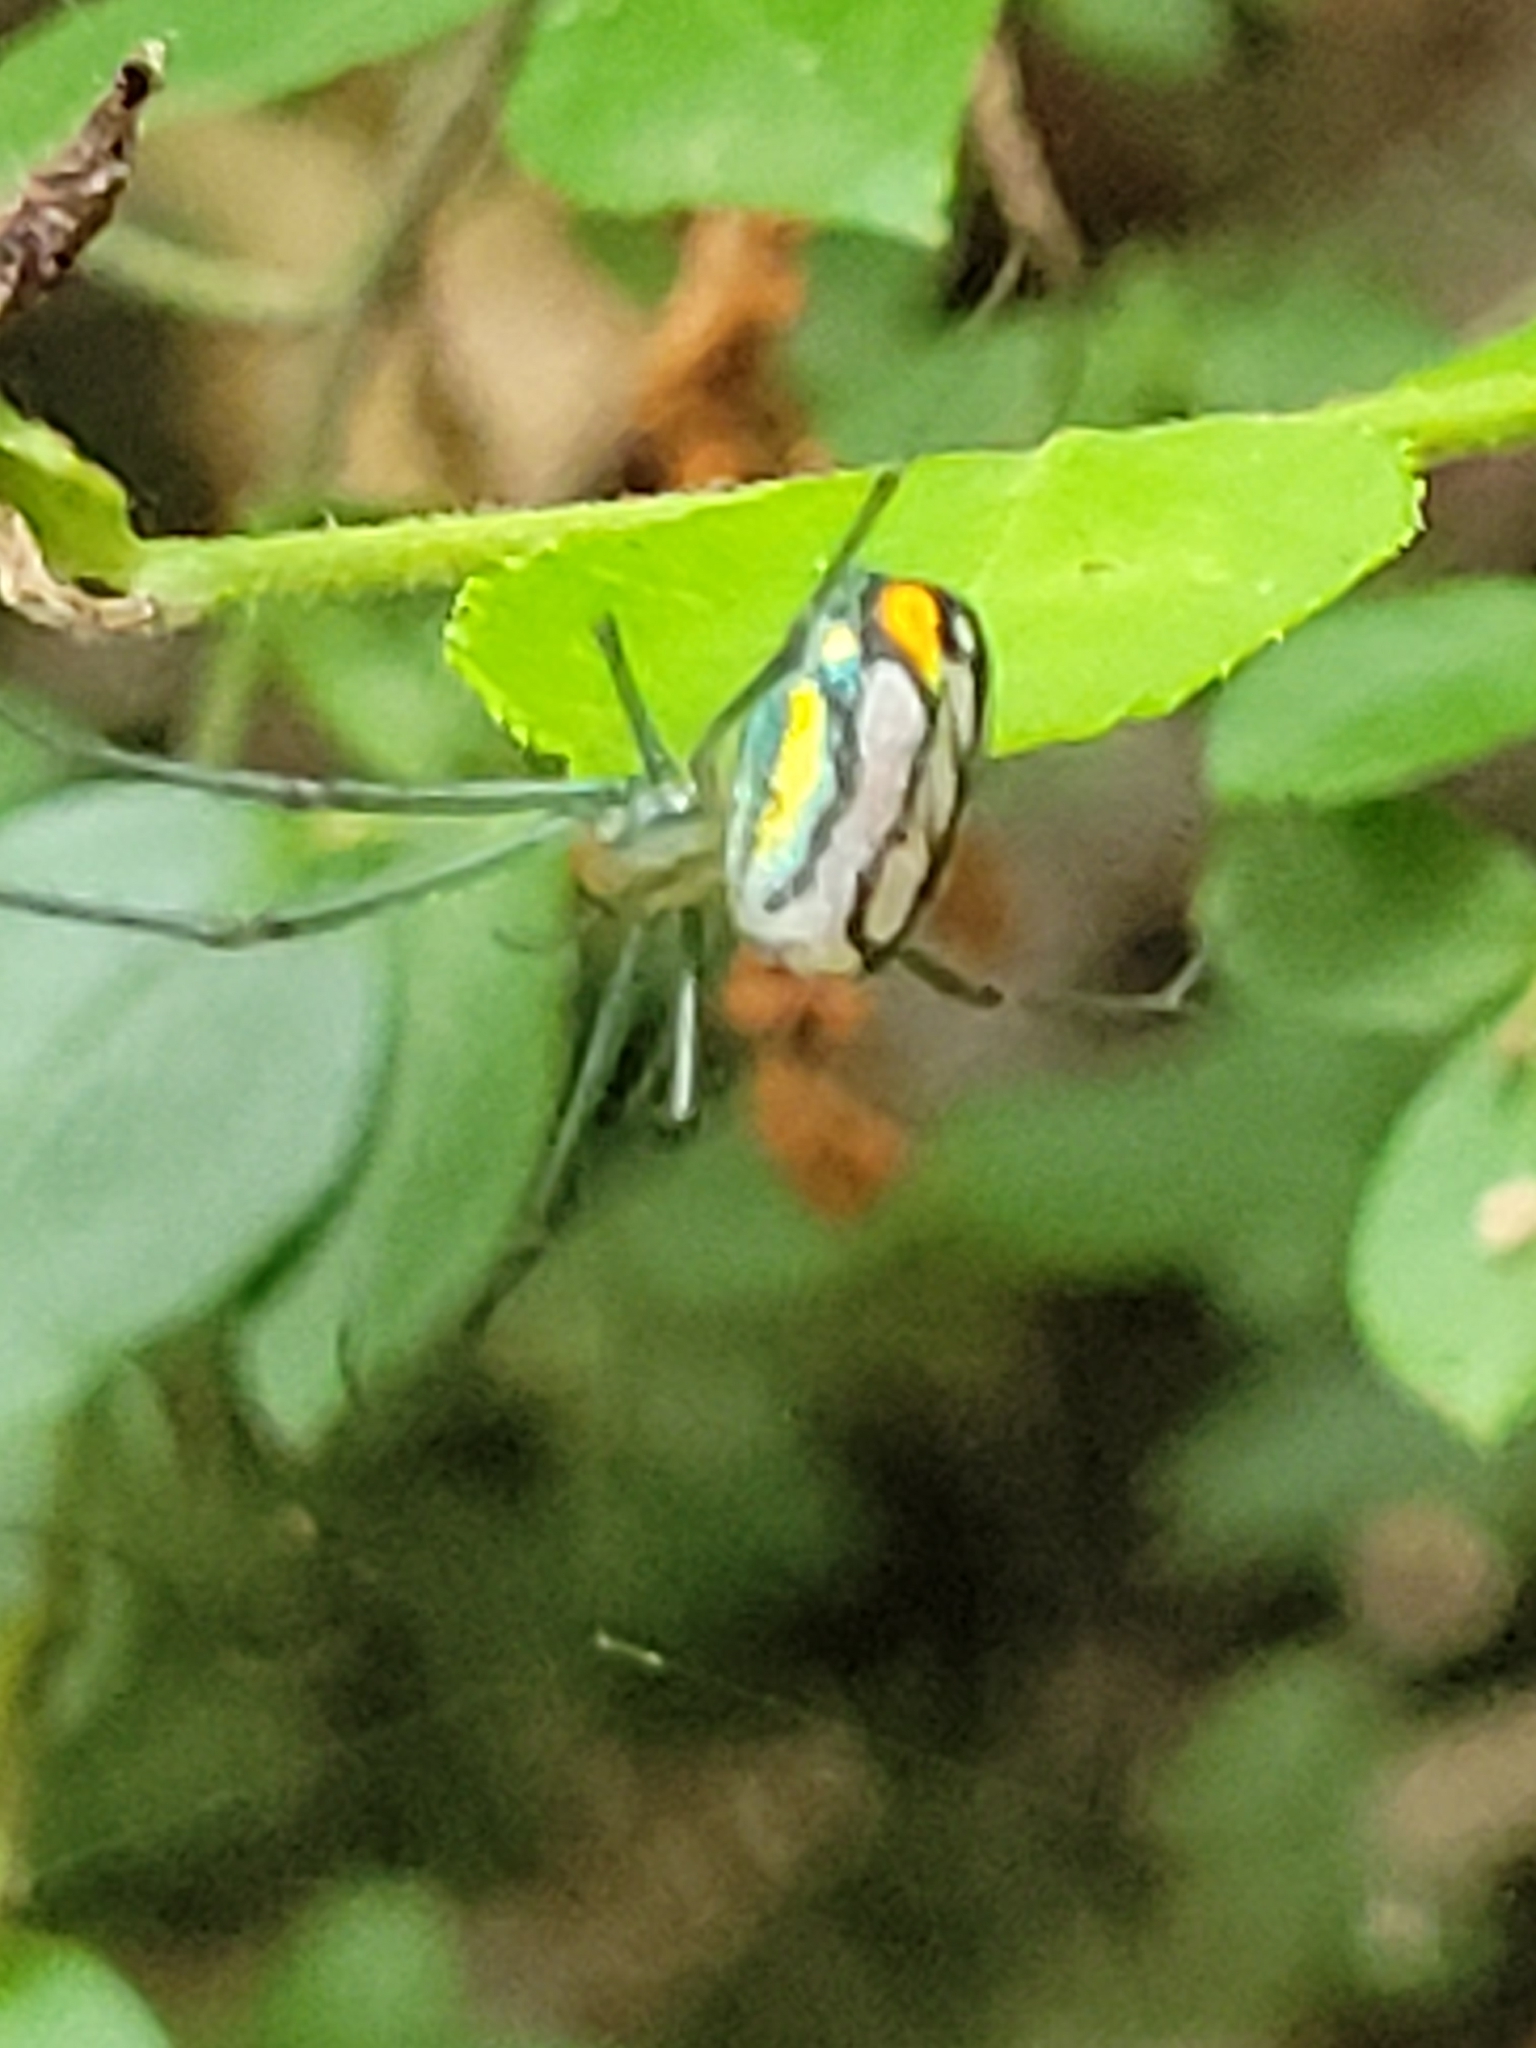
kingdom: Animalia
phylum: Arthropoda
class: Arachnida
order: Araneae
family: Tetragnathidae
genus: Leucauge
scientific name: Leucauge argyrobapta
